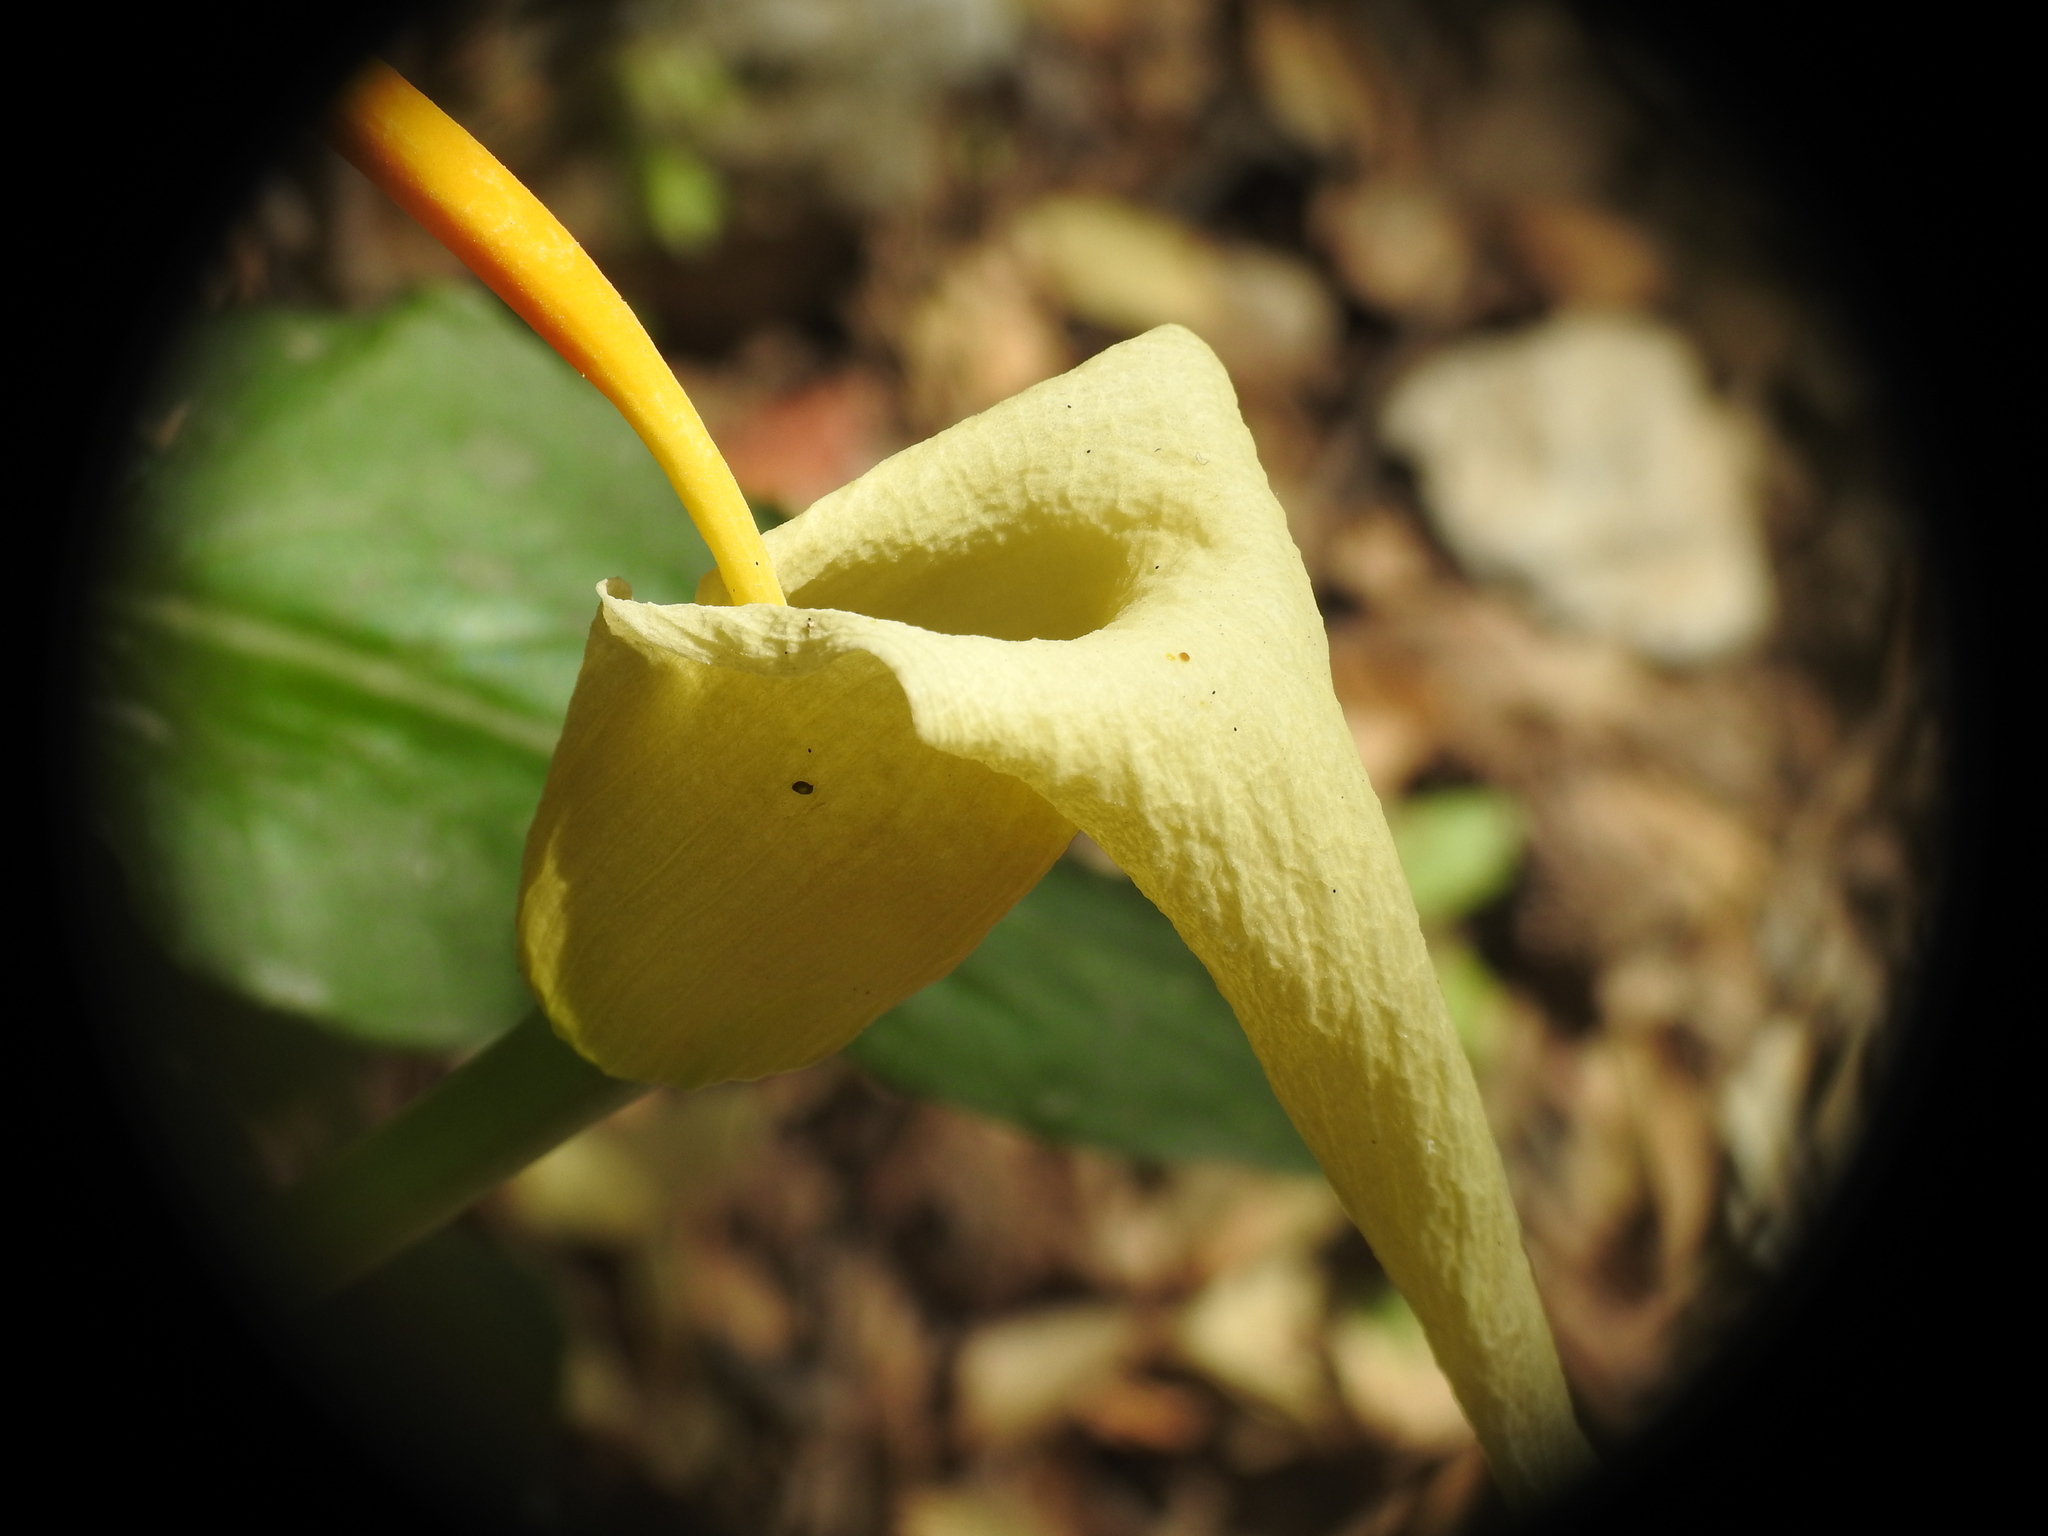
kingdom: Plantae
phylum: Tracheophyta
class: Liliopsida
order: Alismatales
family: Araceae
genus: Arum
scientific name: Arum creticum
